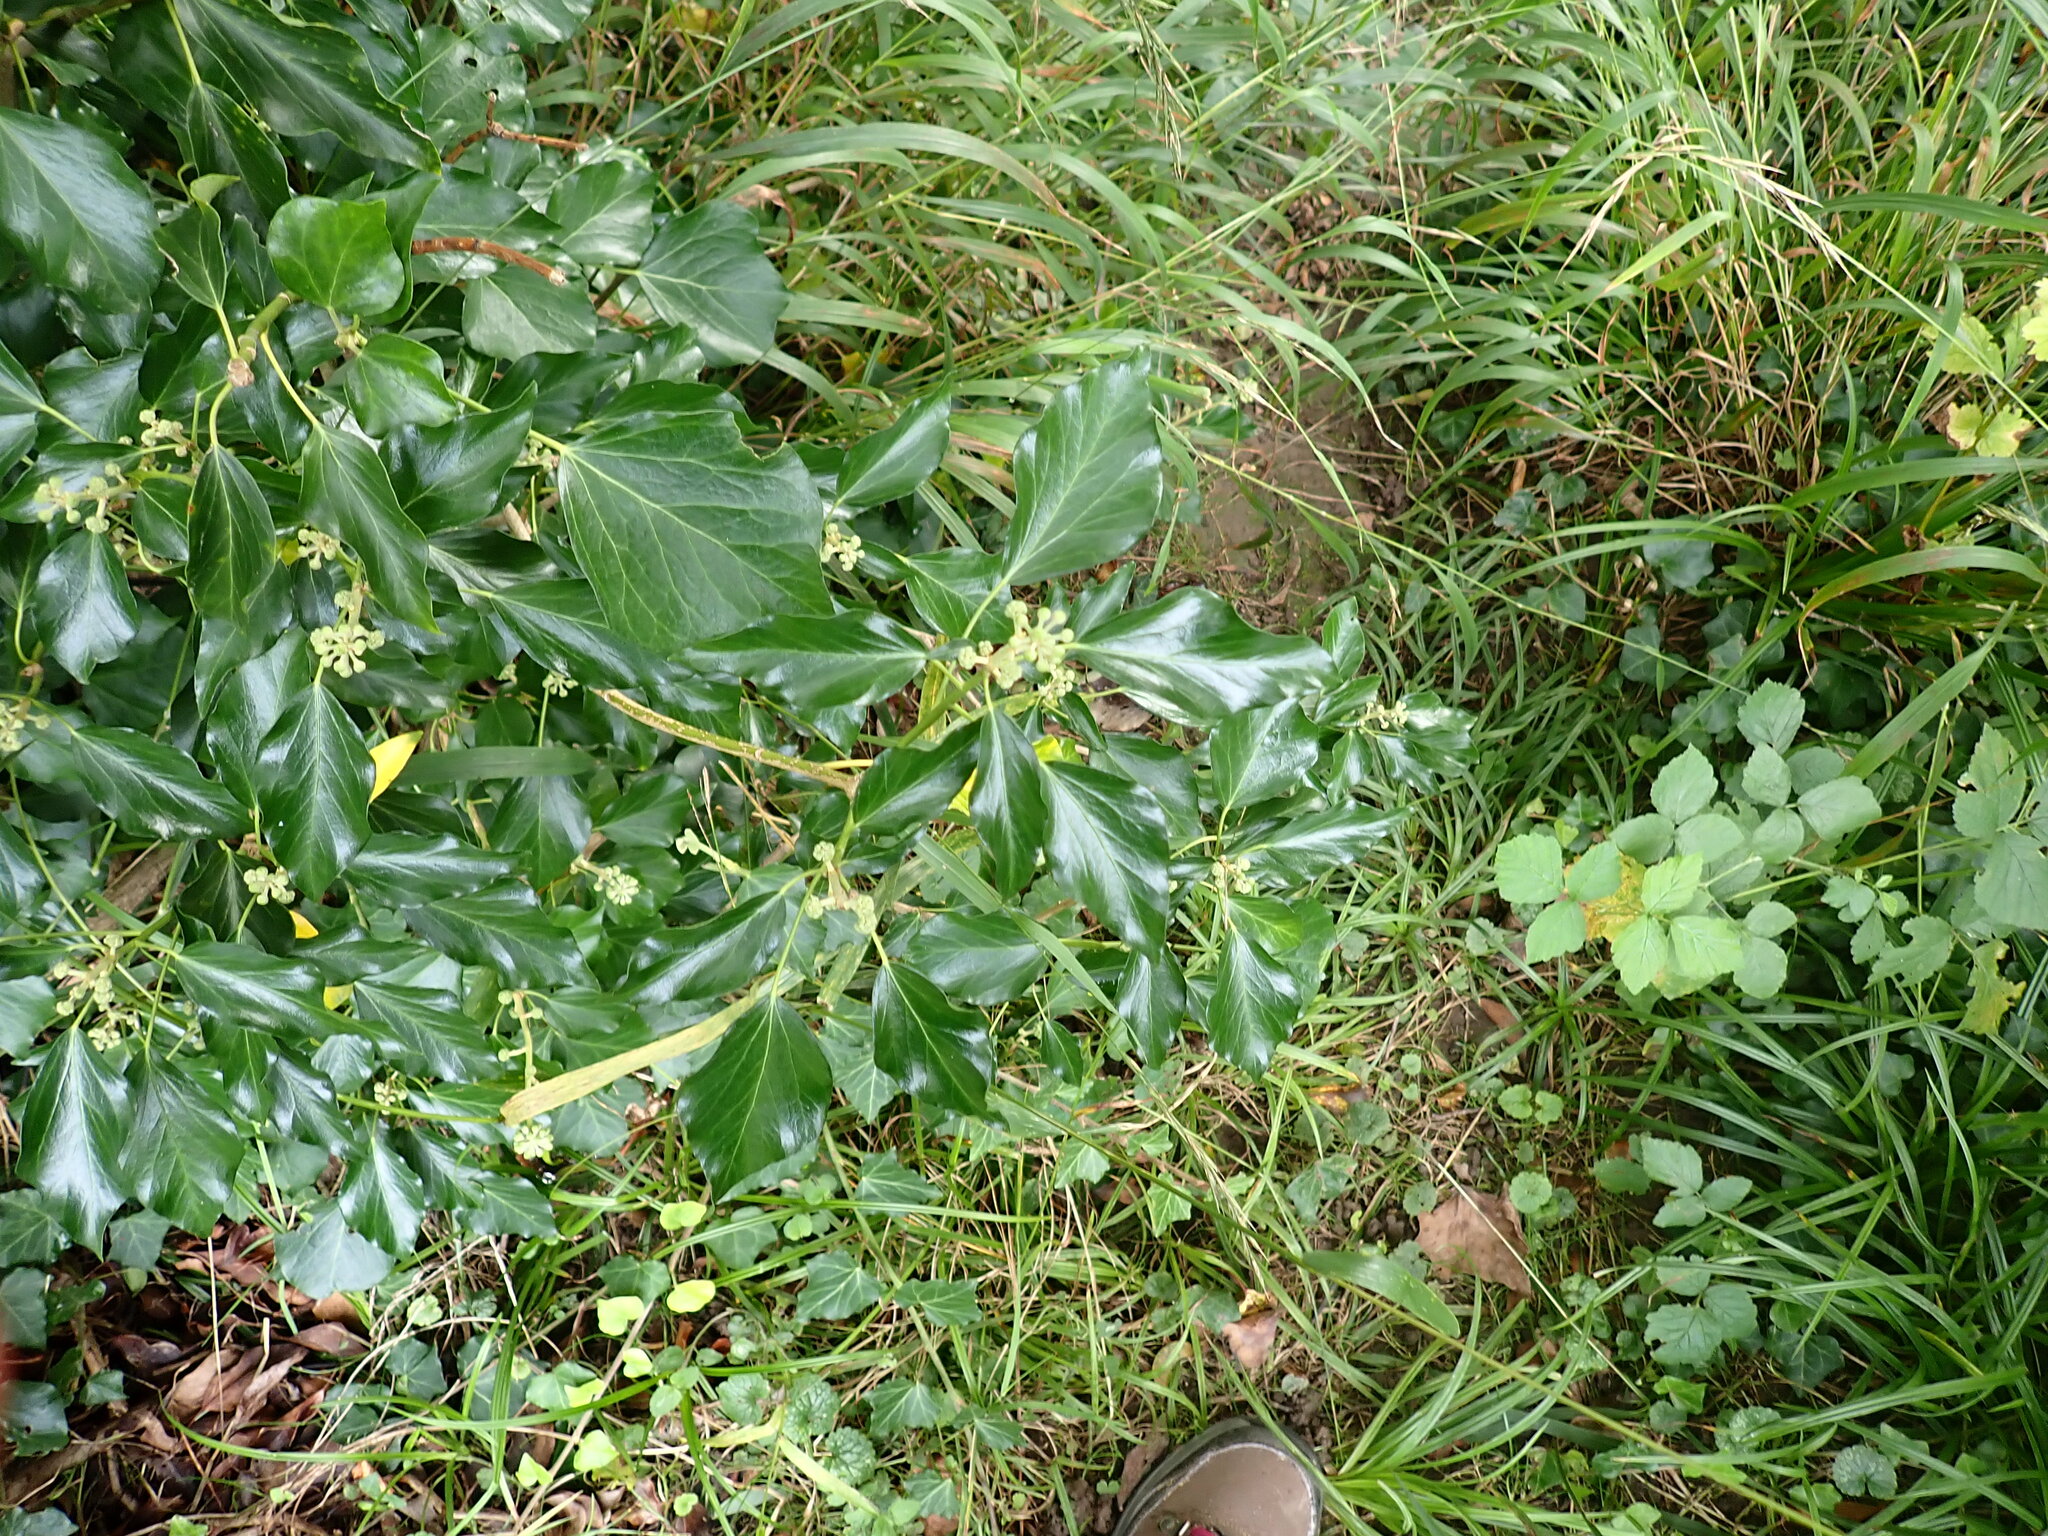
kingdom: Plantae
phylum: Tracheophyta
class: Magnoliopsida
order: Apiales
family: Araliaceae
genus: Hedera
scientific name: Hedera helix
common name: Ivy
